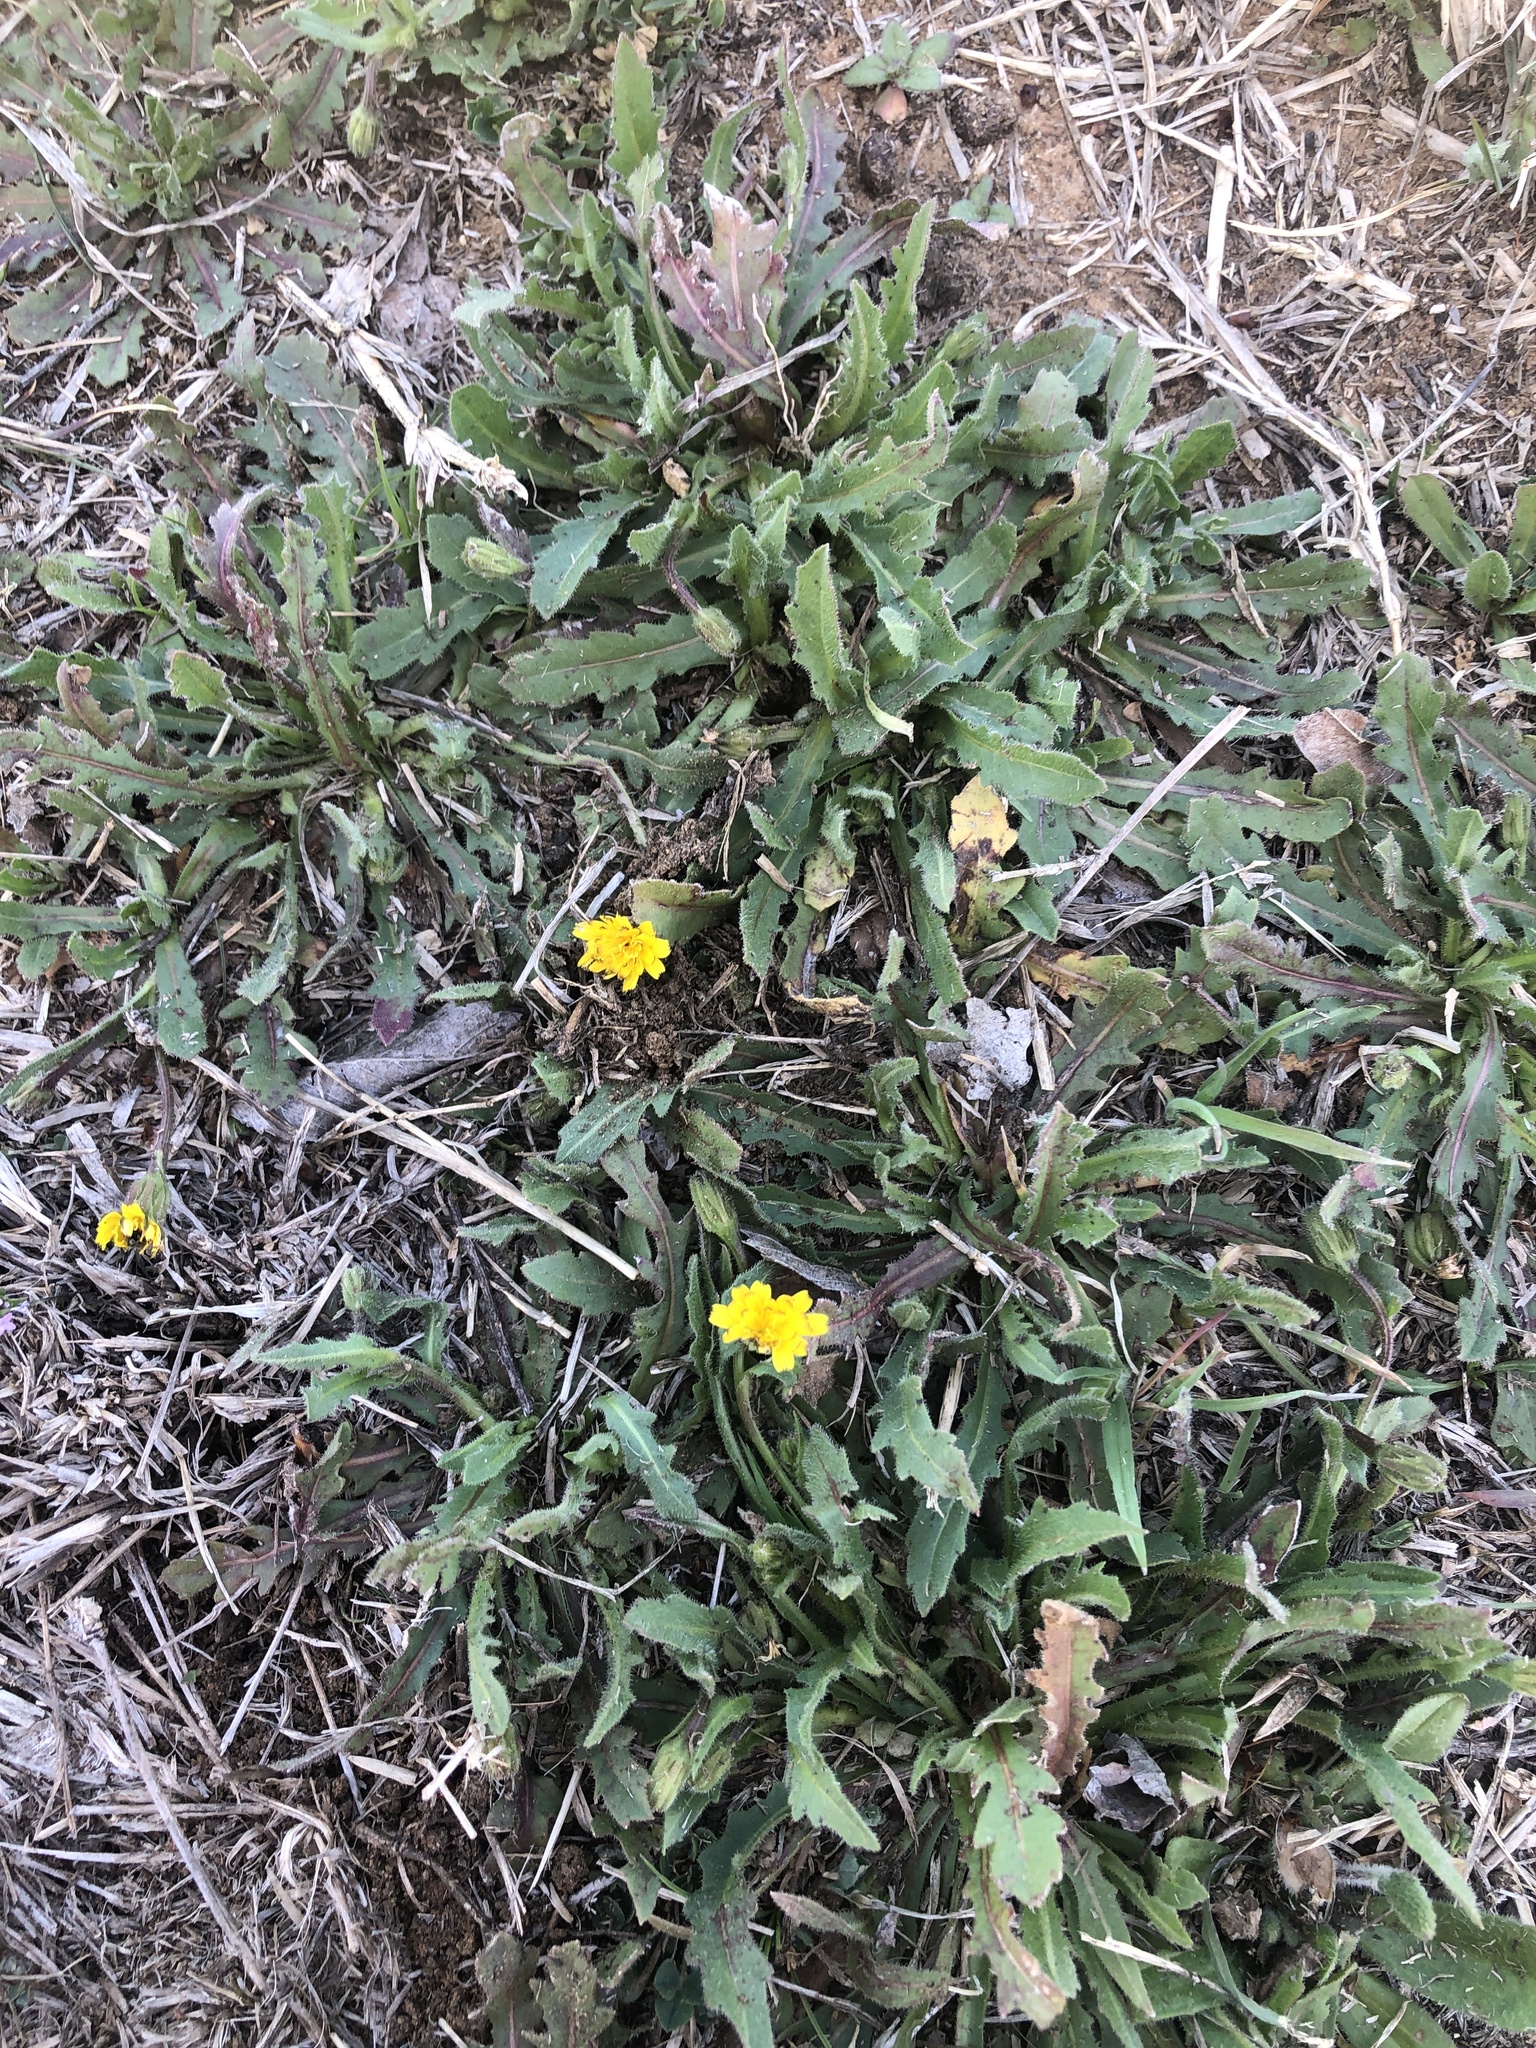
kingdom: Plantae
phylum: Tracheophyta
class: Magnoliopsida
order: Asterales
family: Asteraceae
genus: Hedypnois
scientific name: Hedypnois rhagadioloides
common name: Cretan weed
